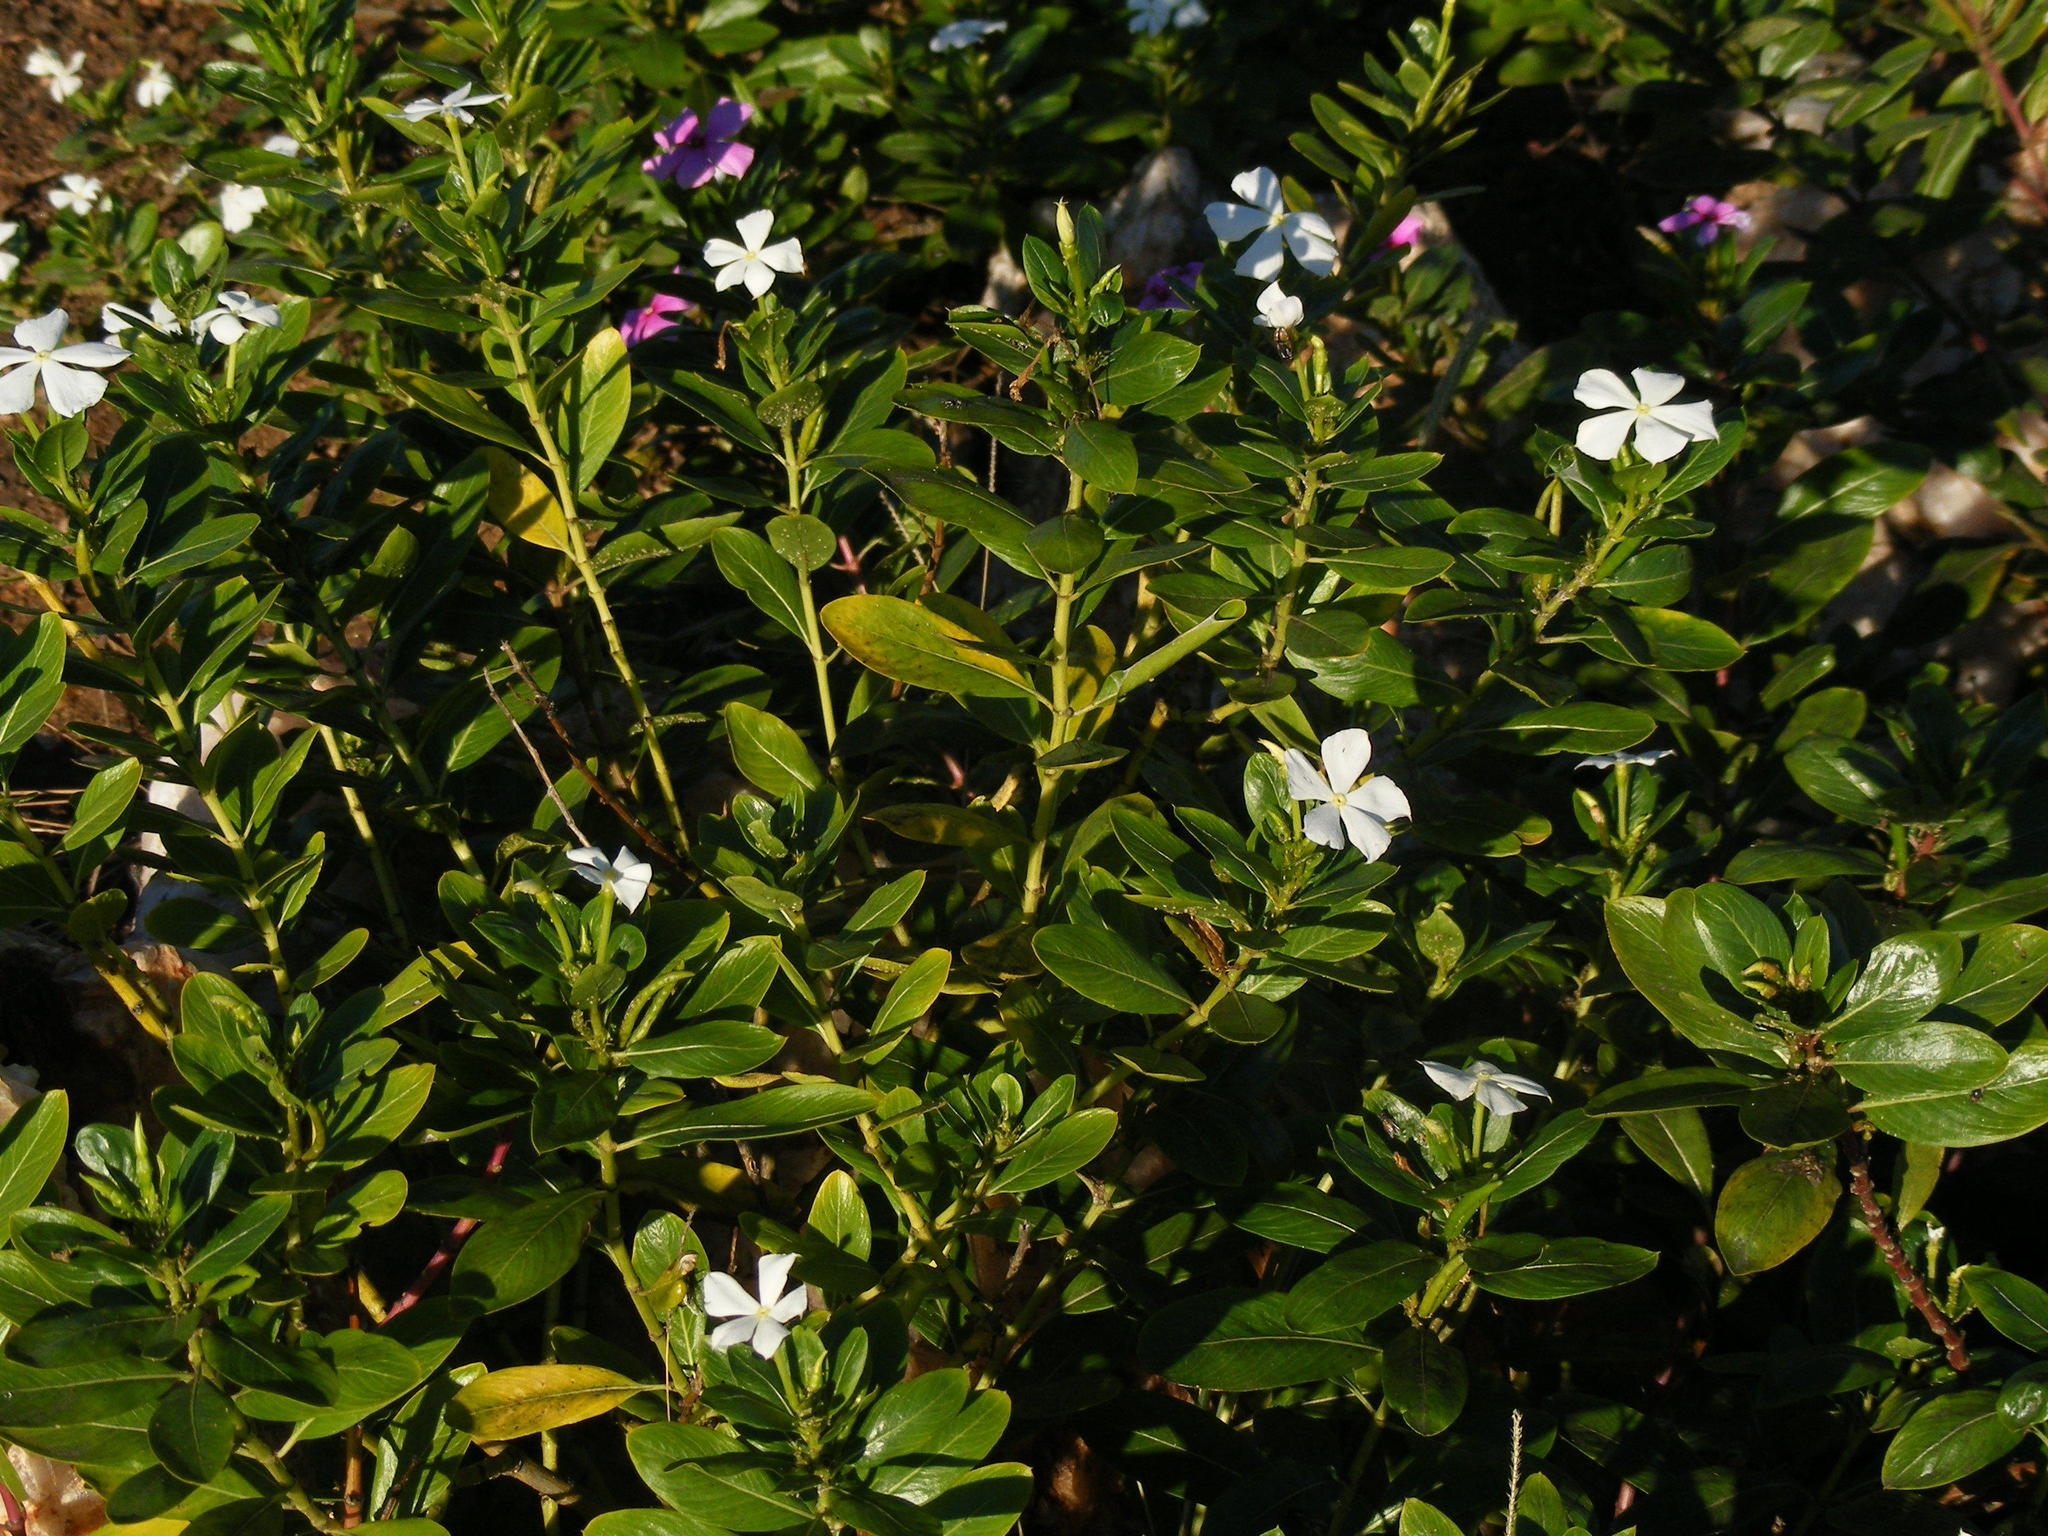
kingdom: Plantae
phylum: Tracheophyta
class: Magnoliopsida
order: Gentianales
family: Apocynaceae
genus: Catharanthus
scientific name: Catharanthus roseus
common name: Madagascar periwinkle
